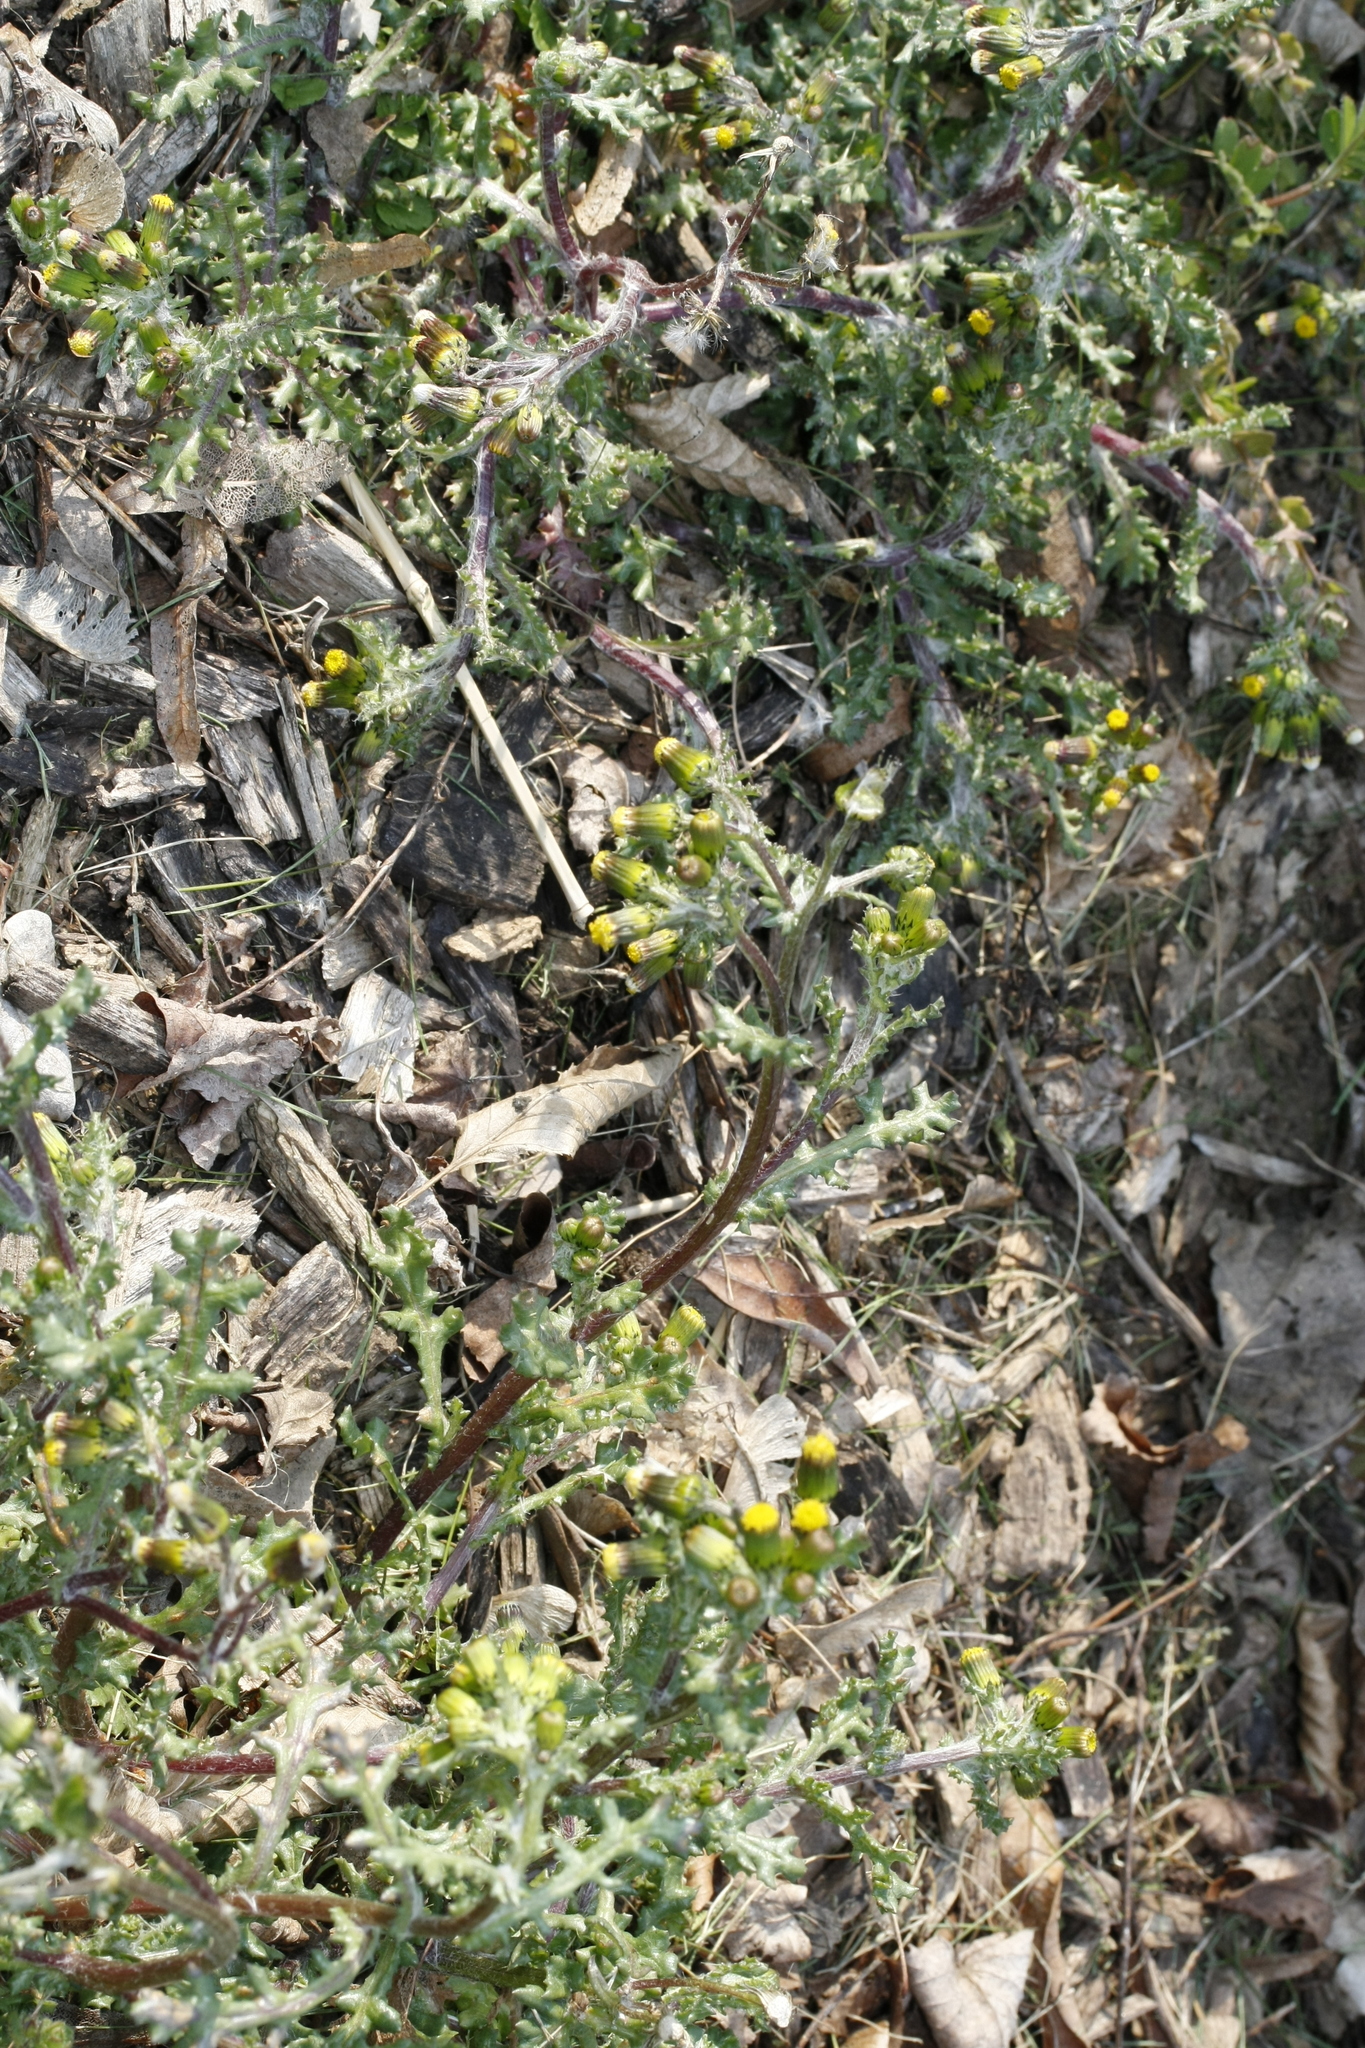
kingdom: Plantae
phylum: Tracheophyta
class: Magnoliopsida
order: Asterales
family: Asteraceae
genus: Senecio
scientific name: Senecio vulgaris
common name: Old-man-in-the-spring
